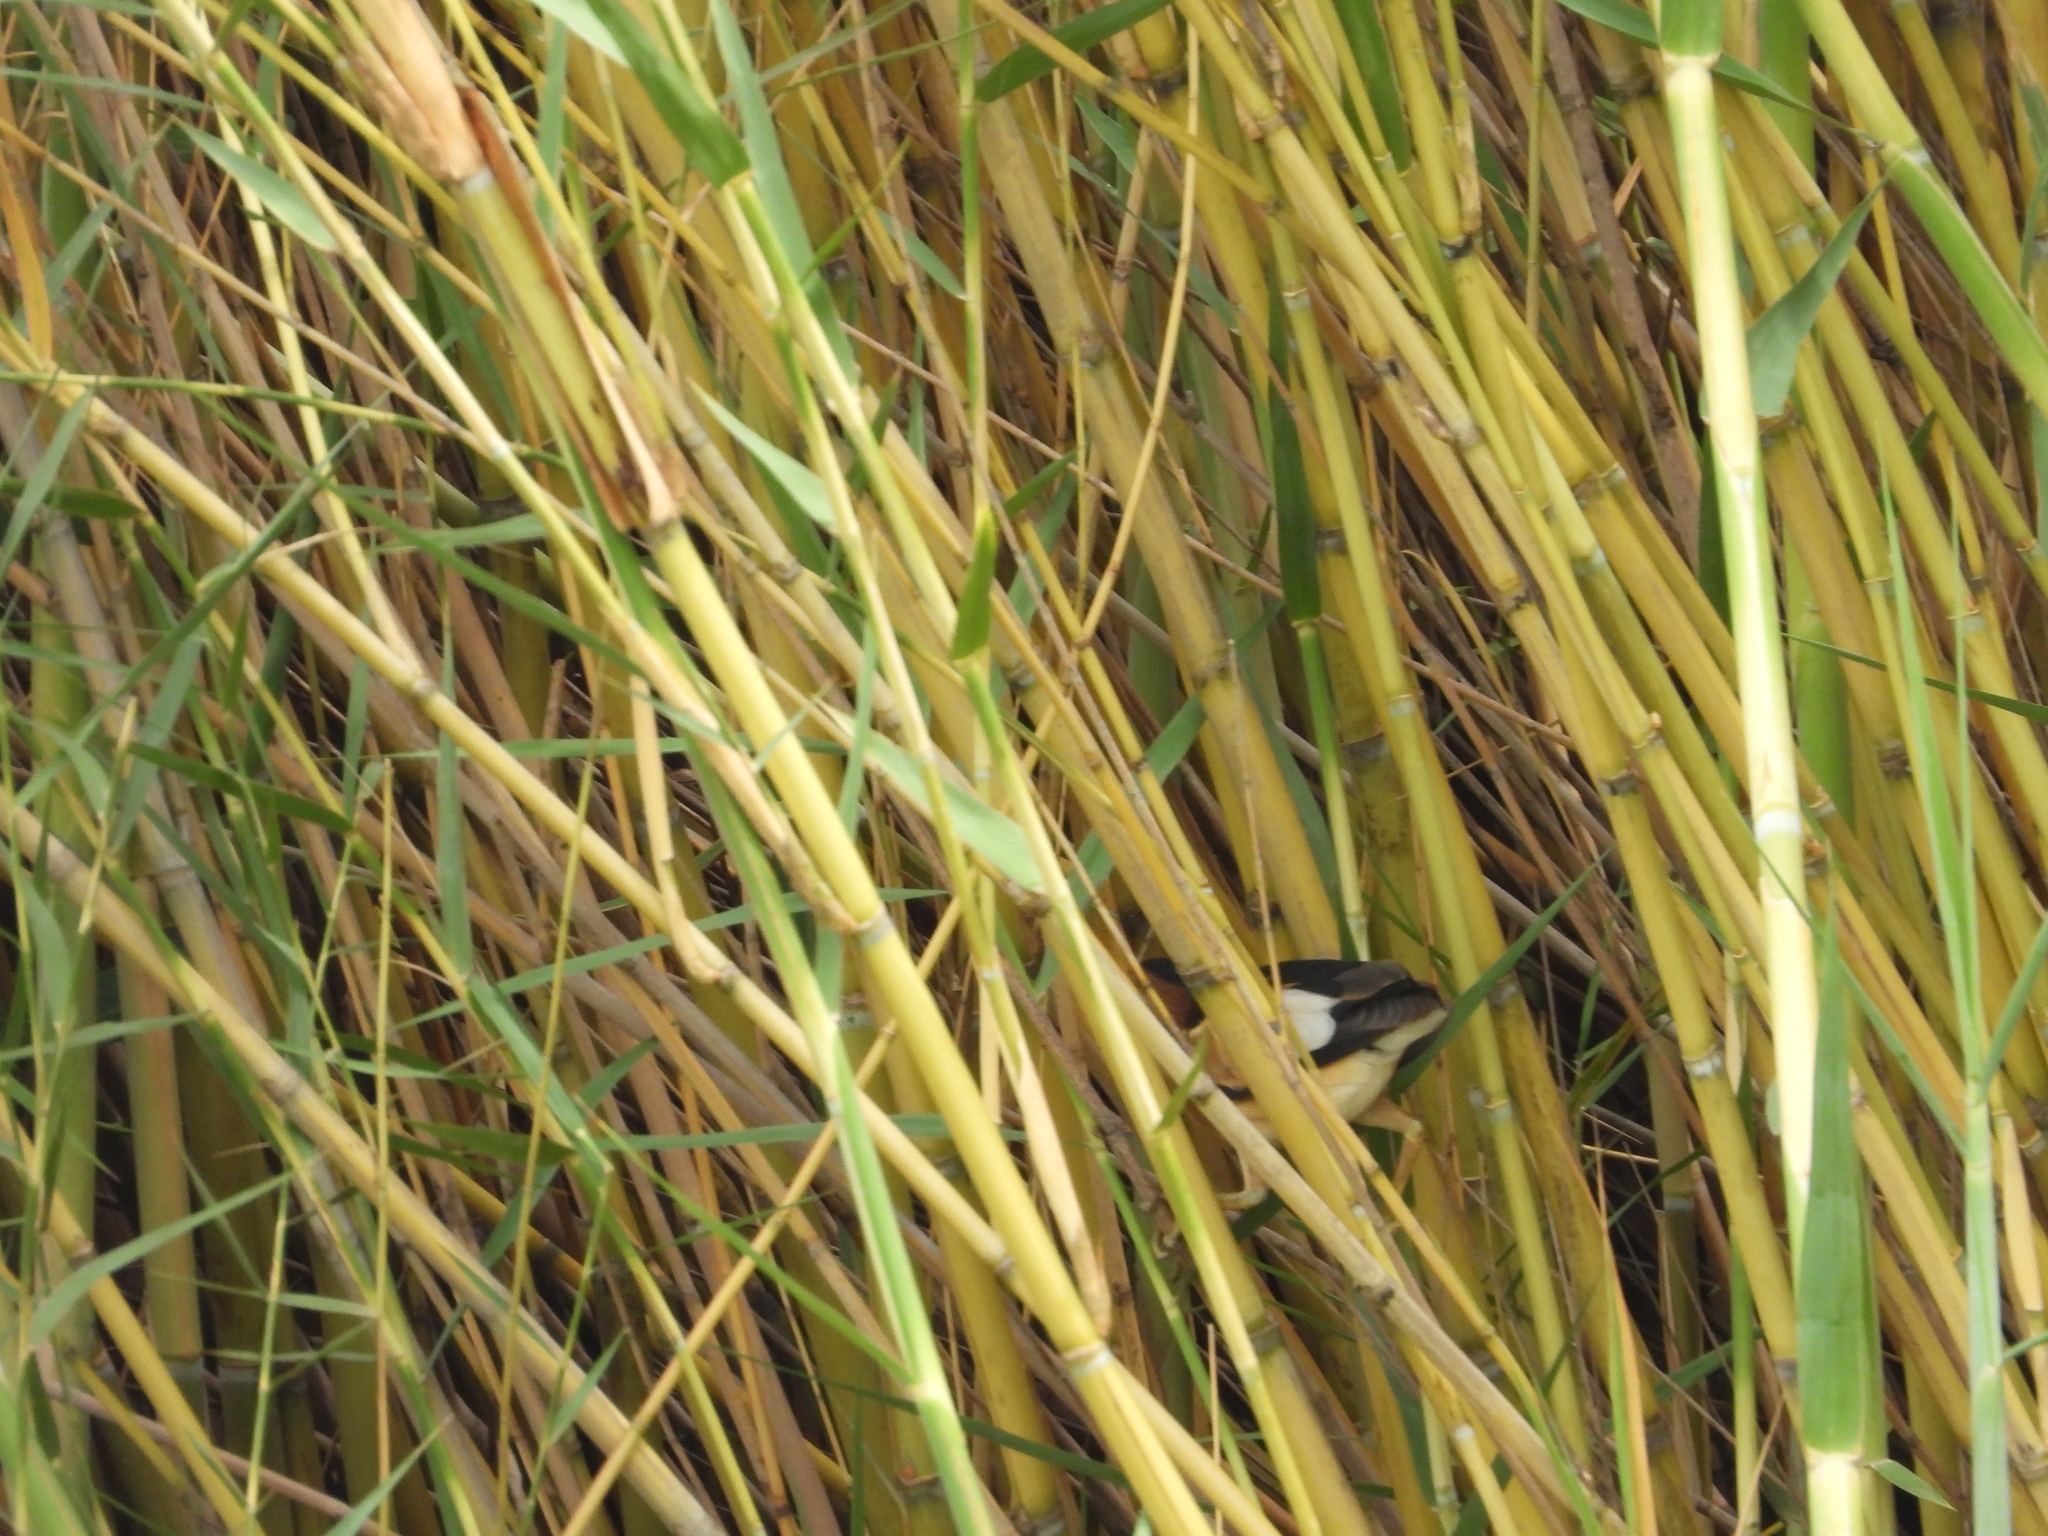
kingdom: Animalia
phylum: Chordata
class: Aves
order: Pelecaniformes
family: Ardeidae
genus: Ixobrychus
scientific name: Ixobrychus minutus
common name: Little bittern
